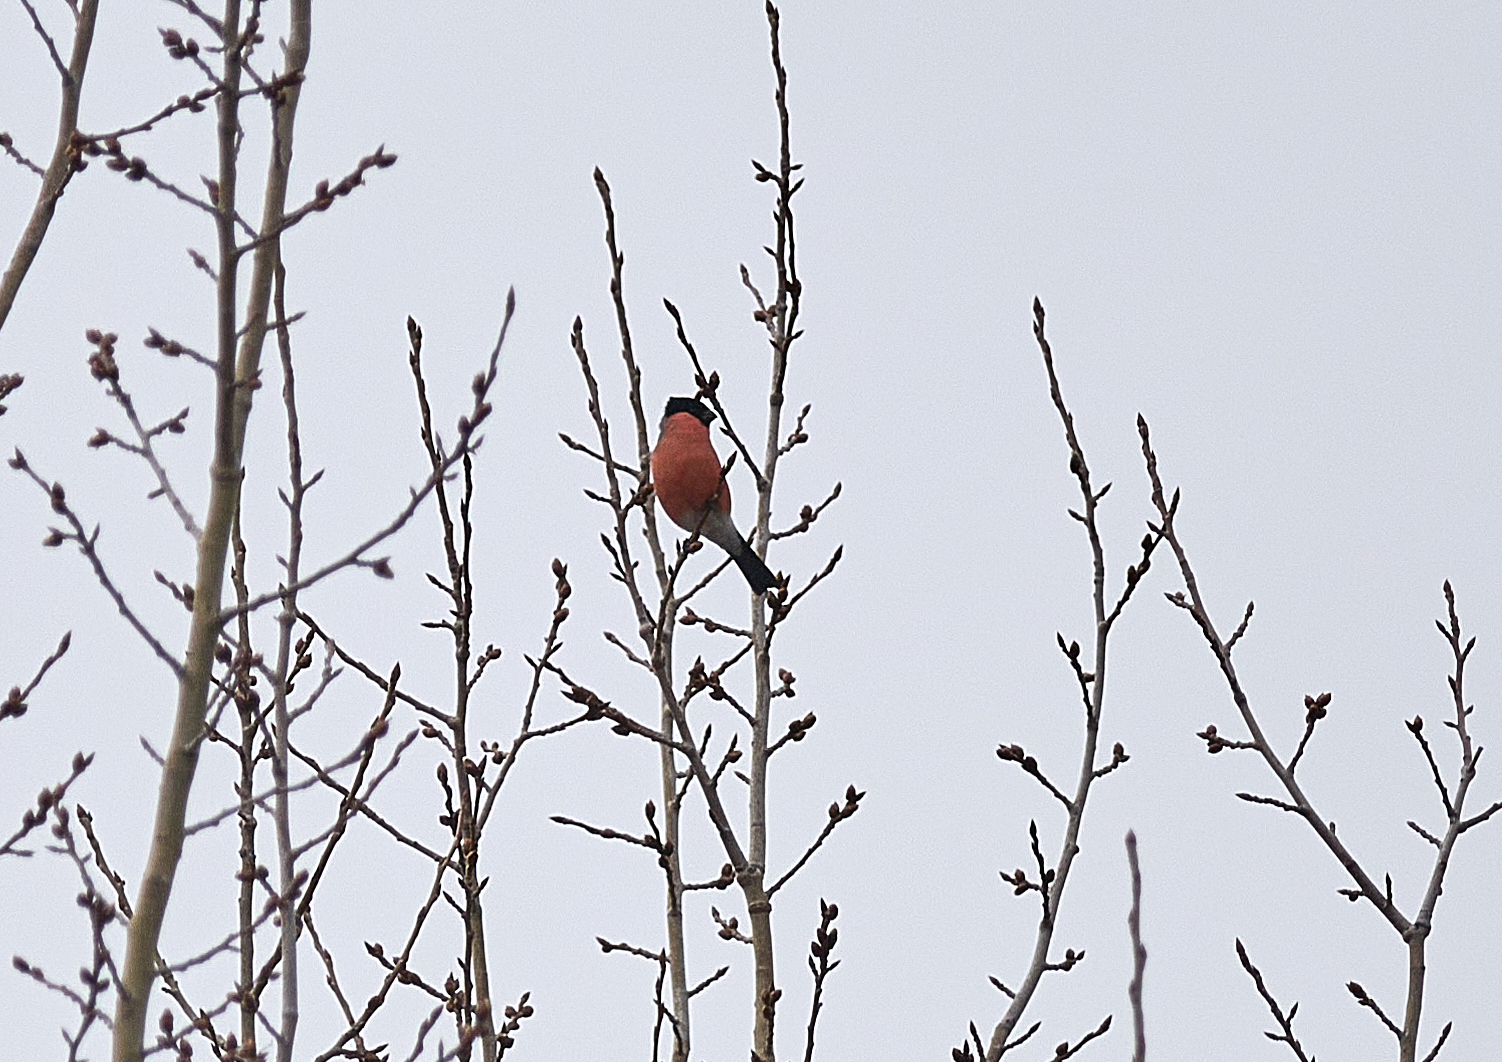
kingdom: Animalia
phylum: Chordata
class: Aves
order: Passeriformes
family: Fringillidae
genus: Pyrrhula
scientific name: Pyrrhula pyrrhula
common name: Eurasian bullfinch
